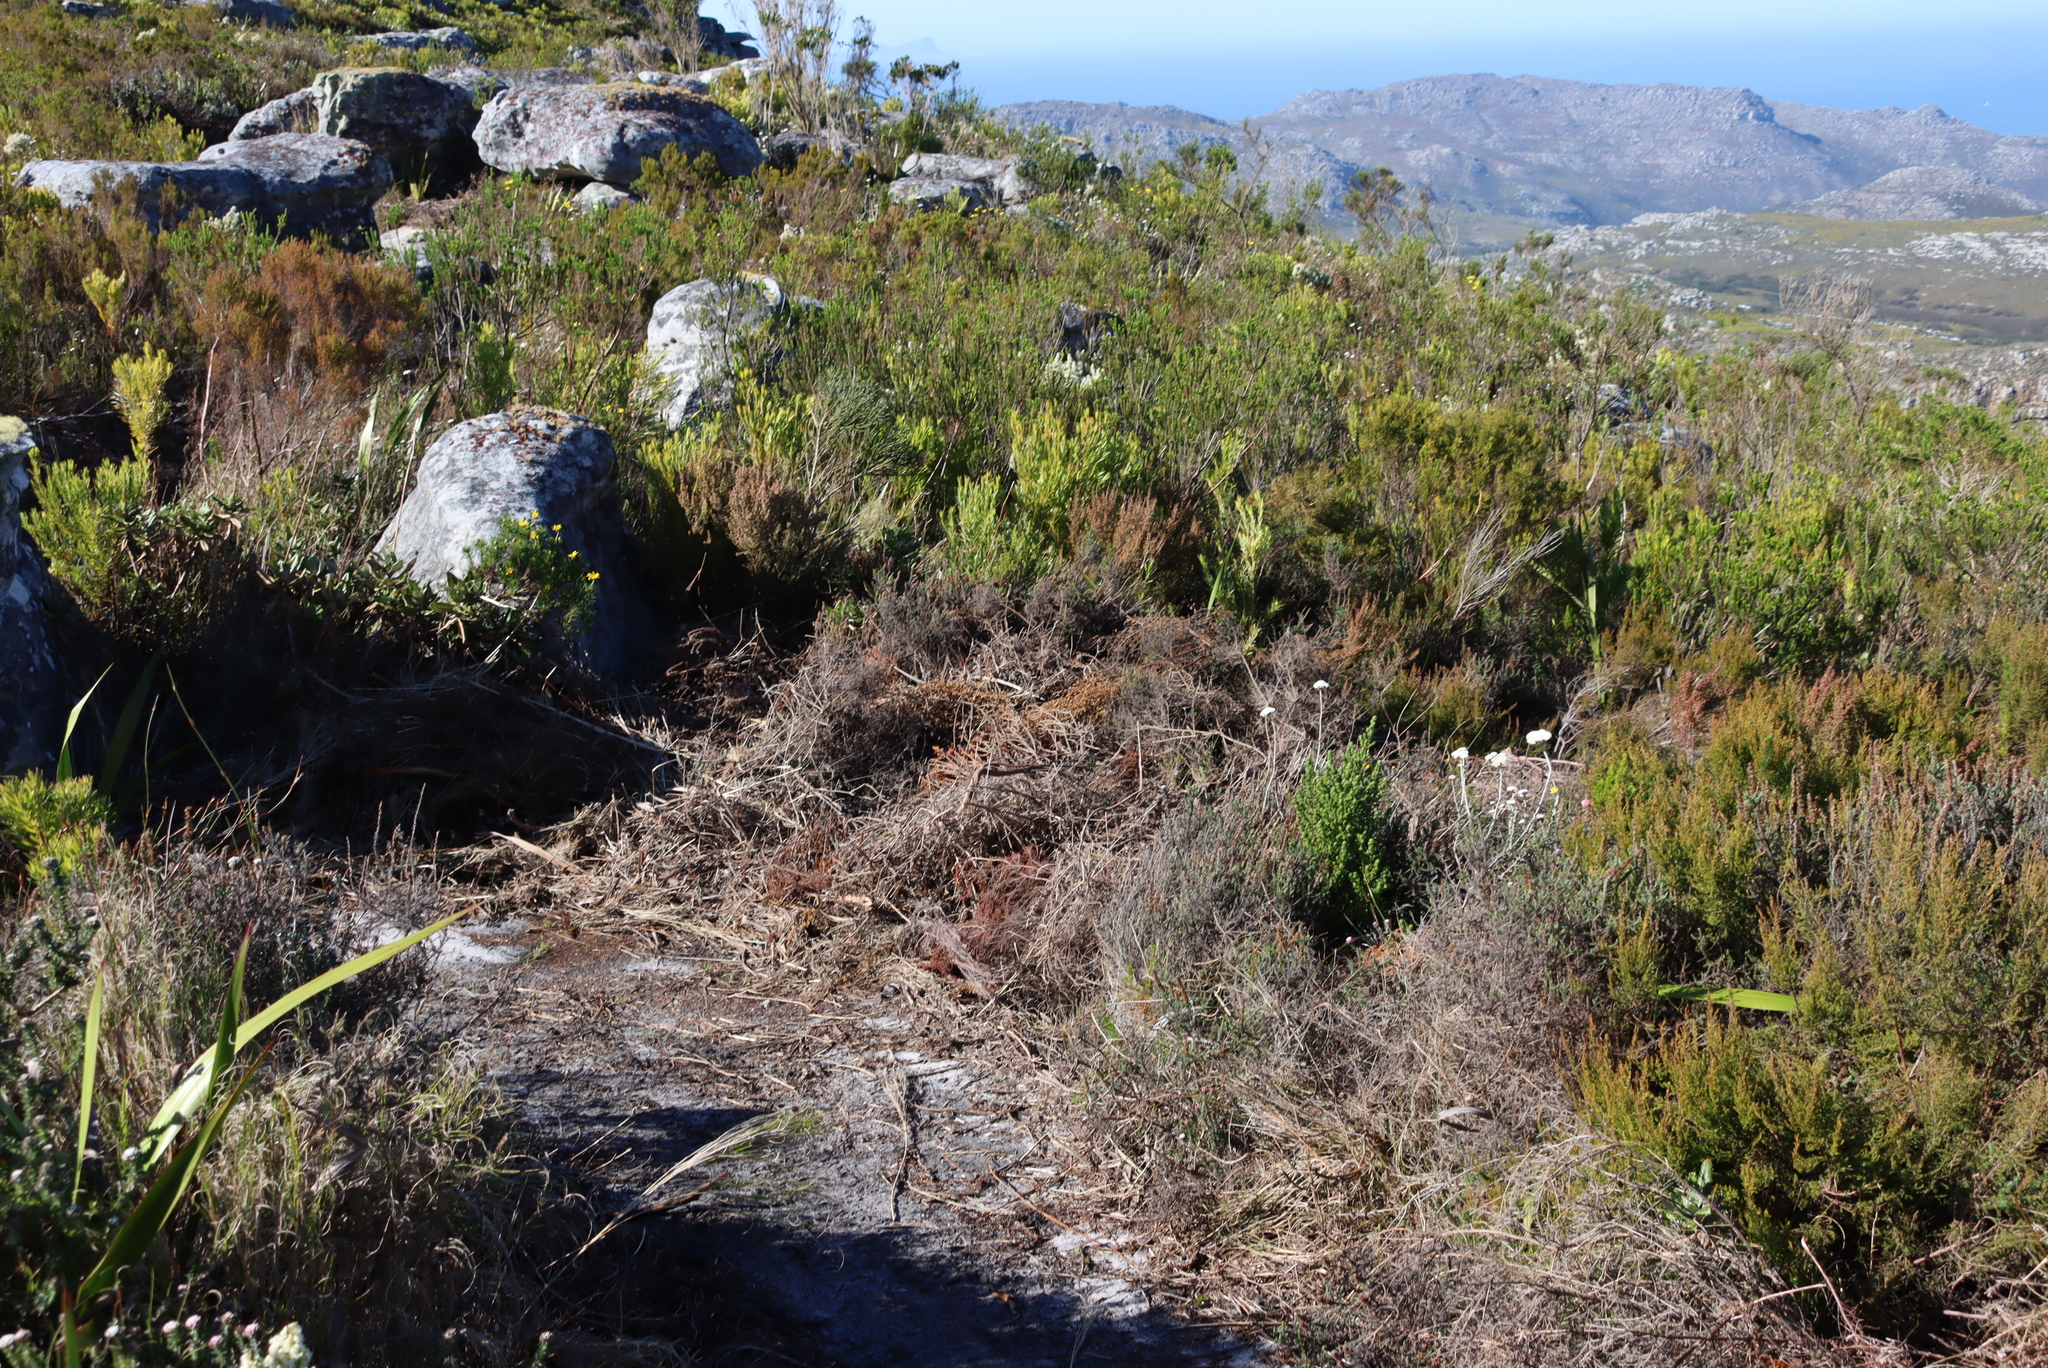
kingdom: Plantae
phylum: Tracheophyta
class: Magnoliopsida
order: Proteales
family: Proteaceae
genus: Leucadendron
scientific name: Leucadendron xanthoconus
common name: Sickle-leaf conebush
